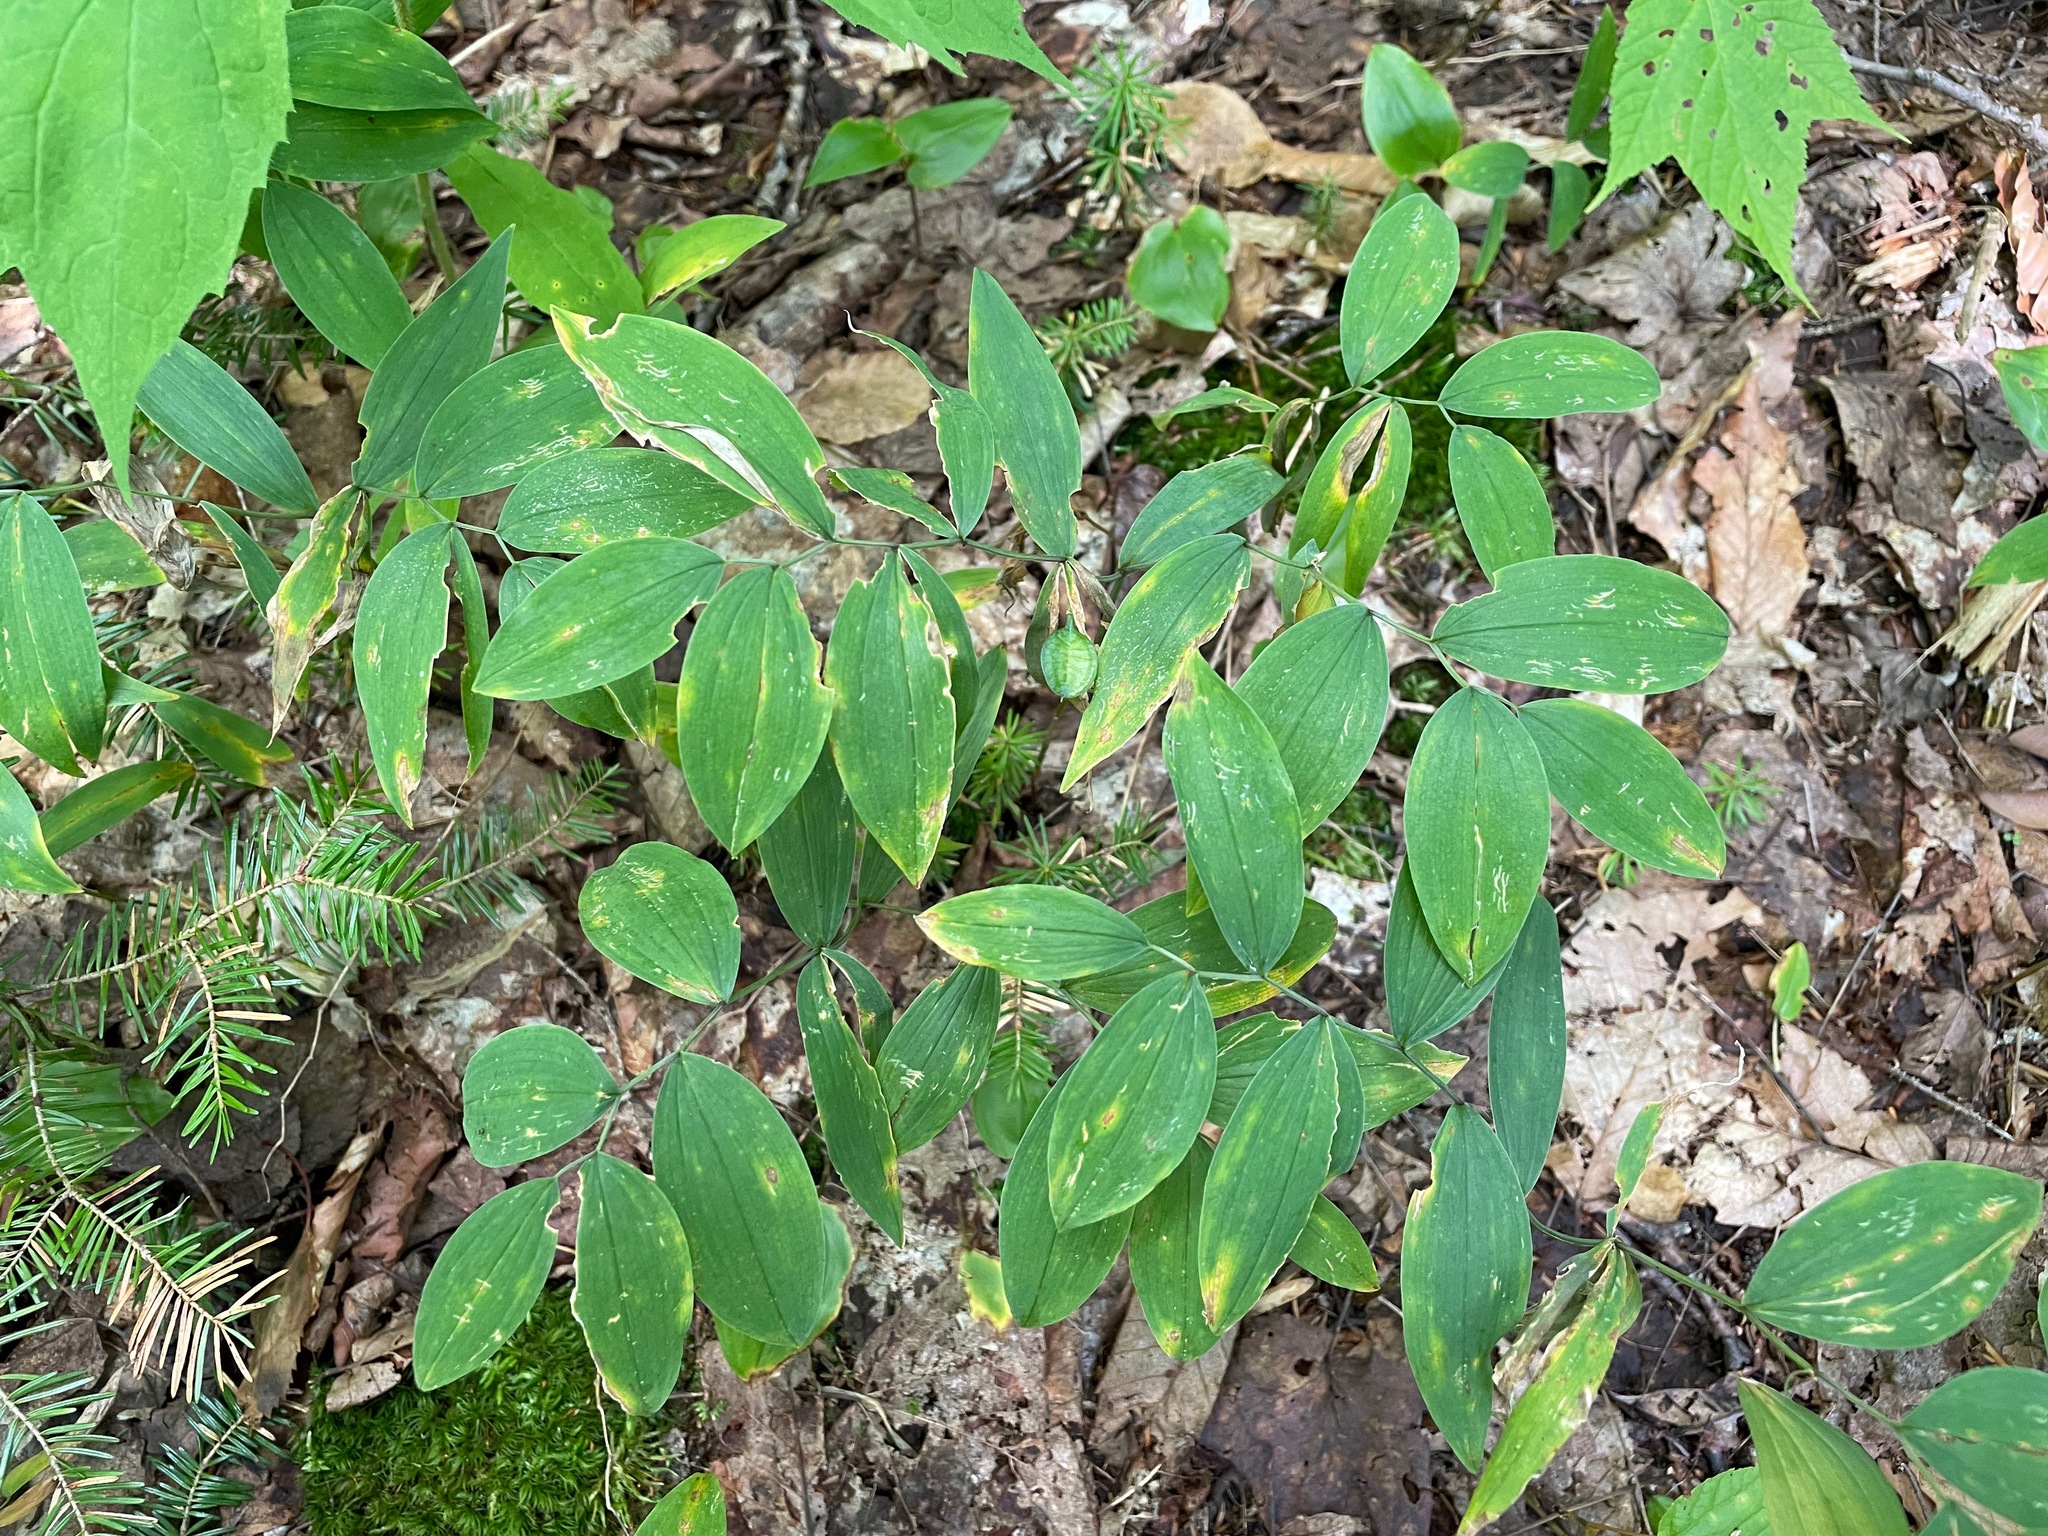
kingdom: Plantae
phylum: Tracheophyta
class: Liliopsida
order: Liliales
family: Colchicaceae
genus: Uvularia
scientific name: Uvularia sessilifolia
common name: Straw-lily
